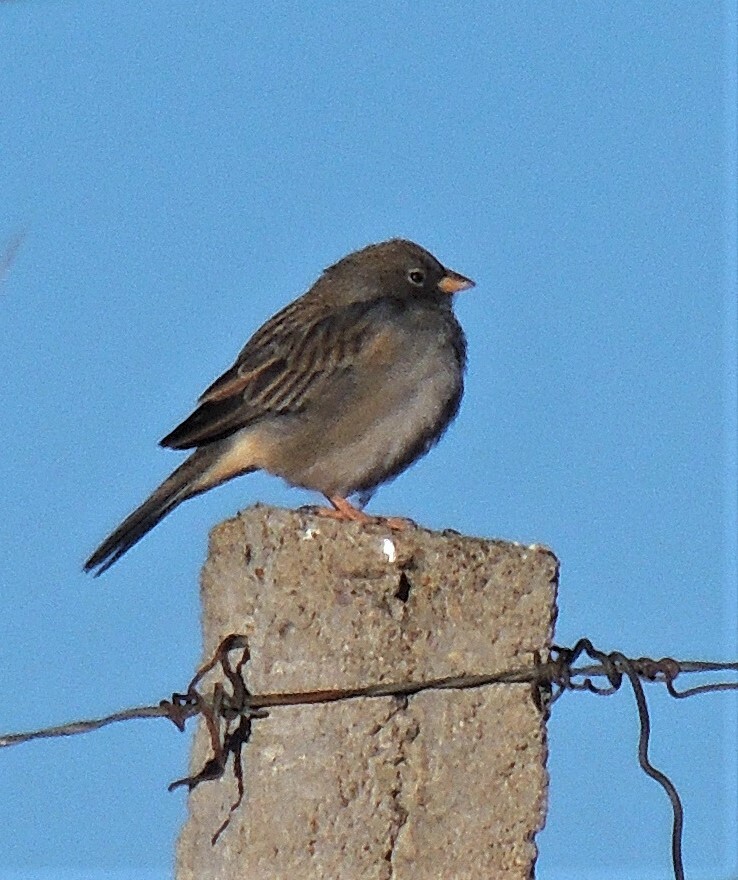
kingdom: Animalia
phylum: Chordata
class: Aves
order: Passeriformes
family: Thraupidae
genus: Porphyrospiza
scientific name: Porphyrospiza alaudina
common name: Band-tailed sierra finch
